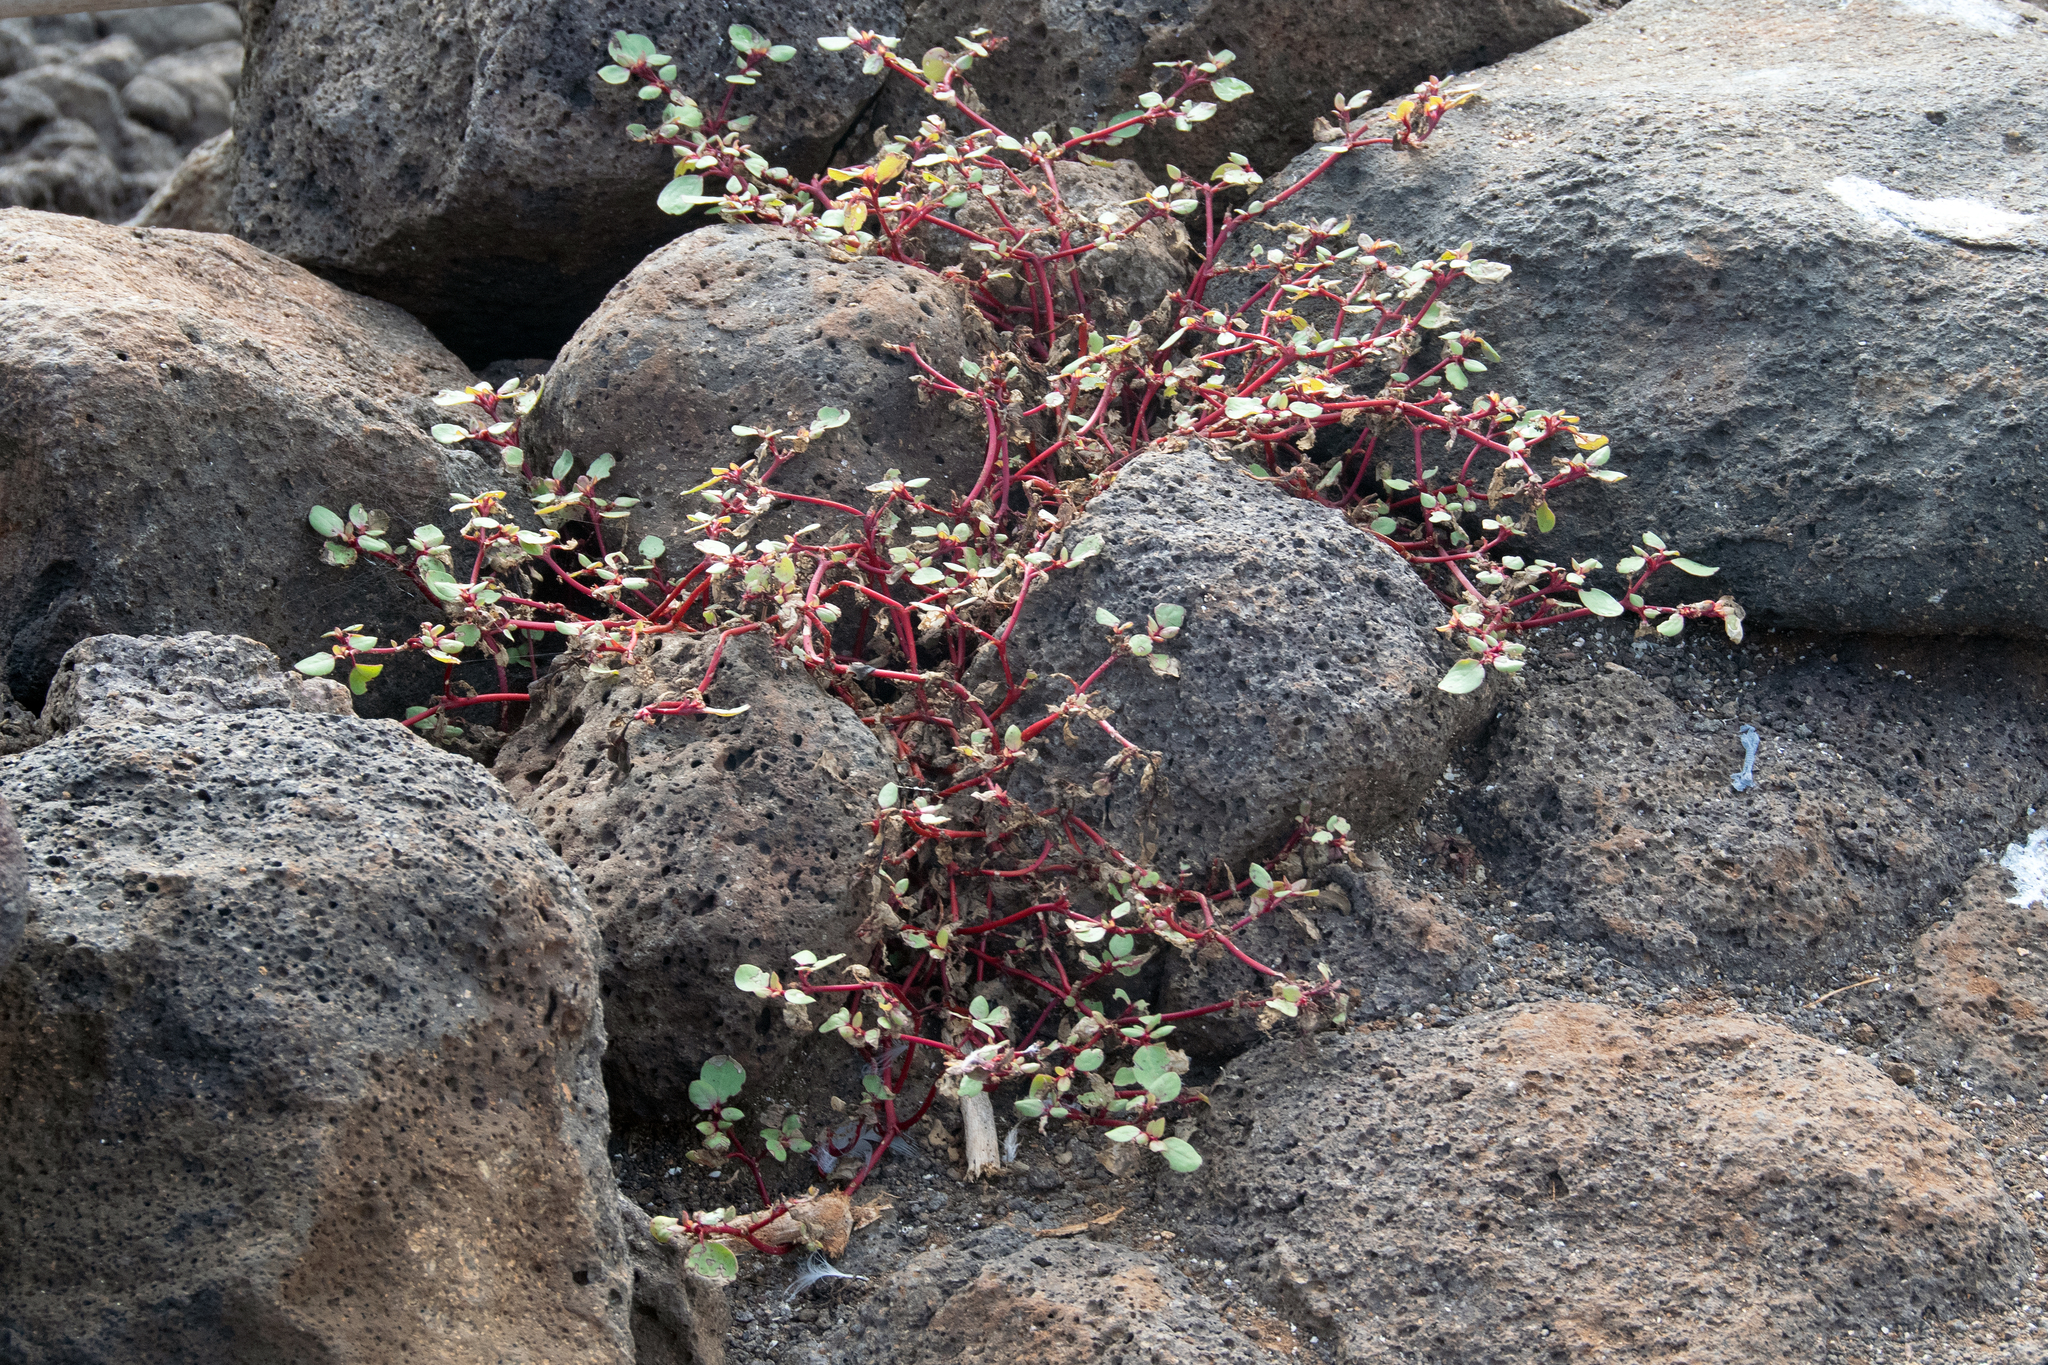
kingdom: Plantae
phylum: Tracheophyta
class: Magnoliopsida
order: Caryophyllales
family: Aizoaceae
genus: Trianthema
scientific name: Trianthema portulacastrum
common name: Desert horsepurslane
